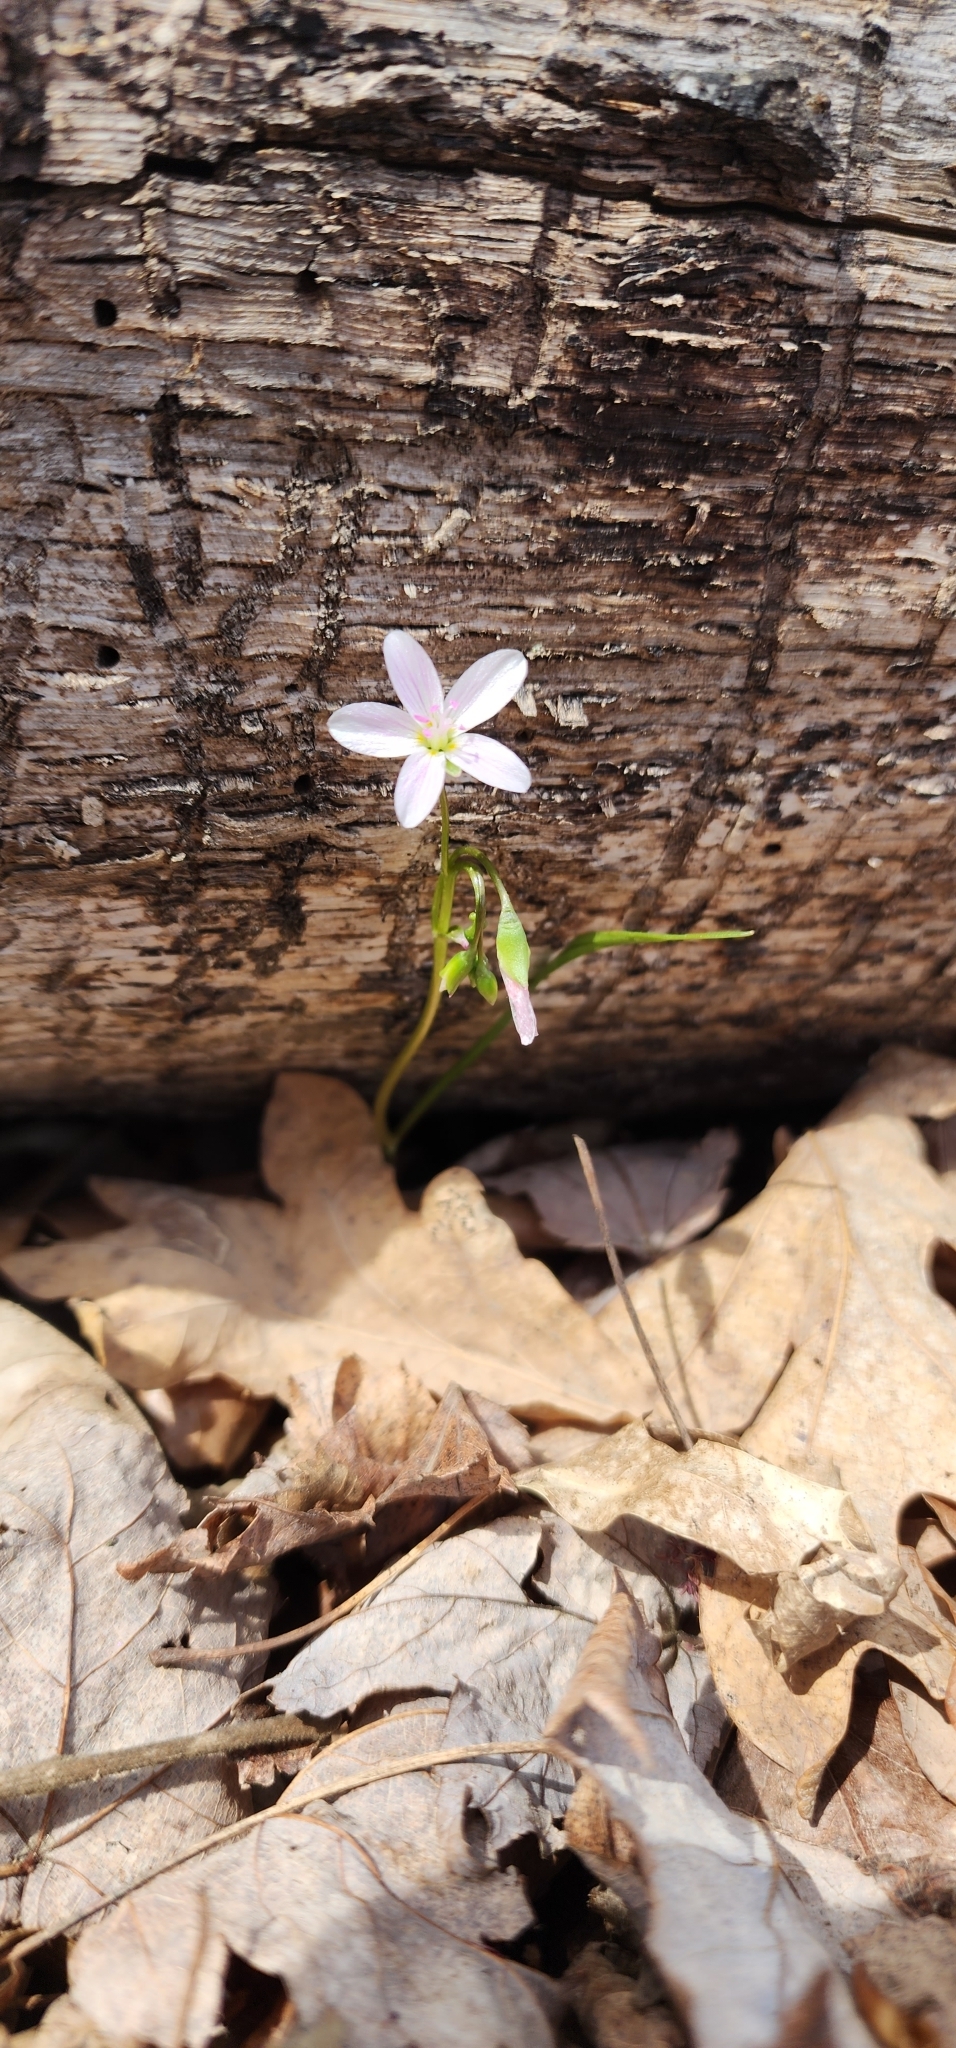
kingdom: Plantae
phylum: Tracheophyta
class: Magnoliopsida
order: Caryophyllales
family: Montiaceae
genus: Claytonia
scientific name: Claytonia virginica
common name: Virginia springbeauty
